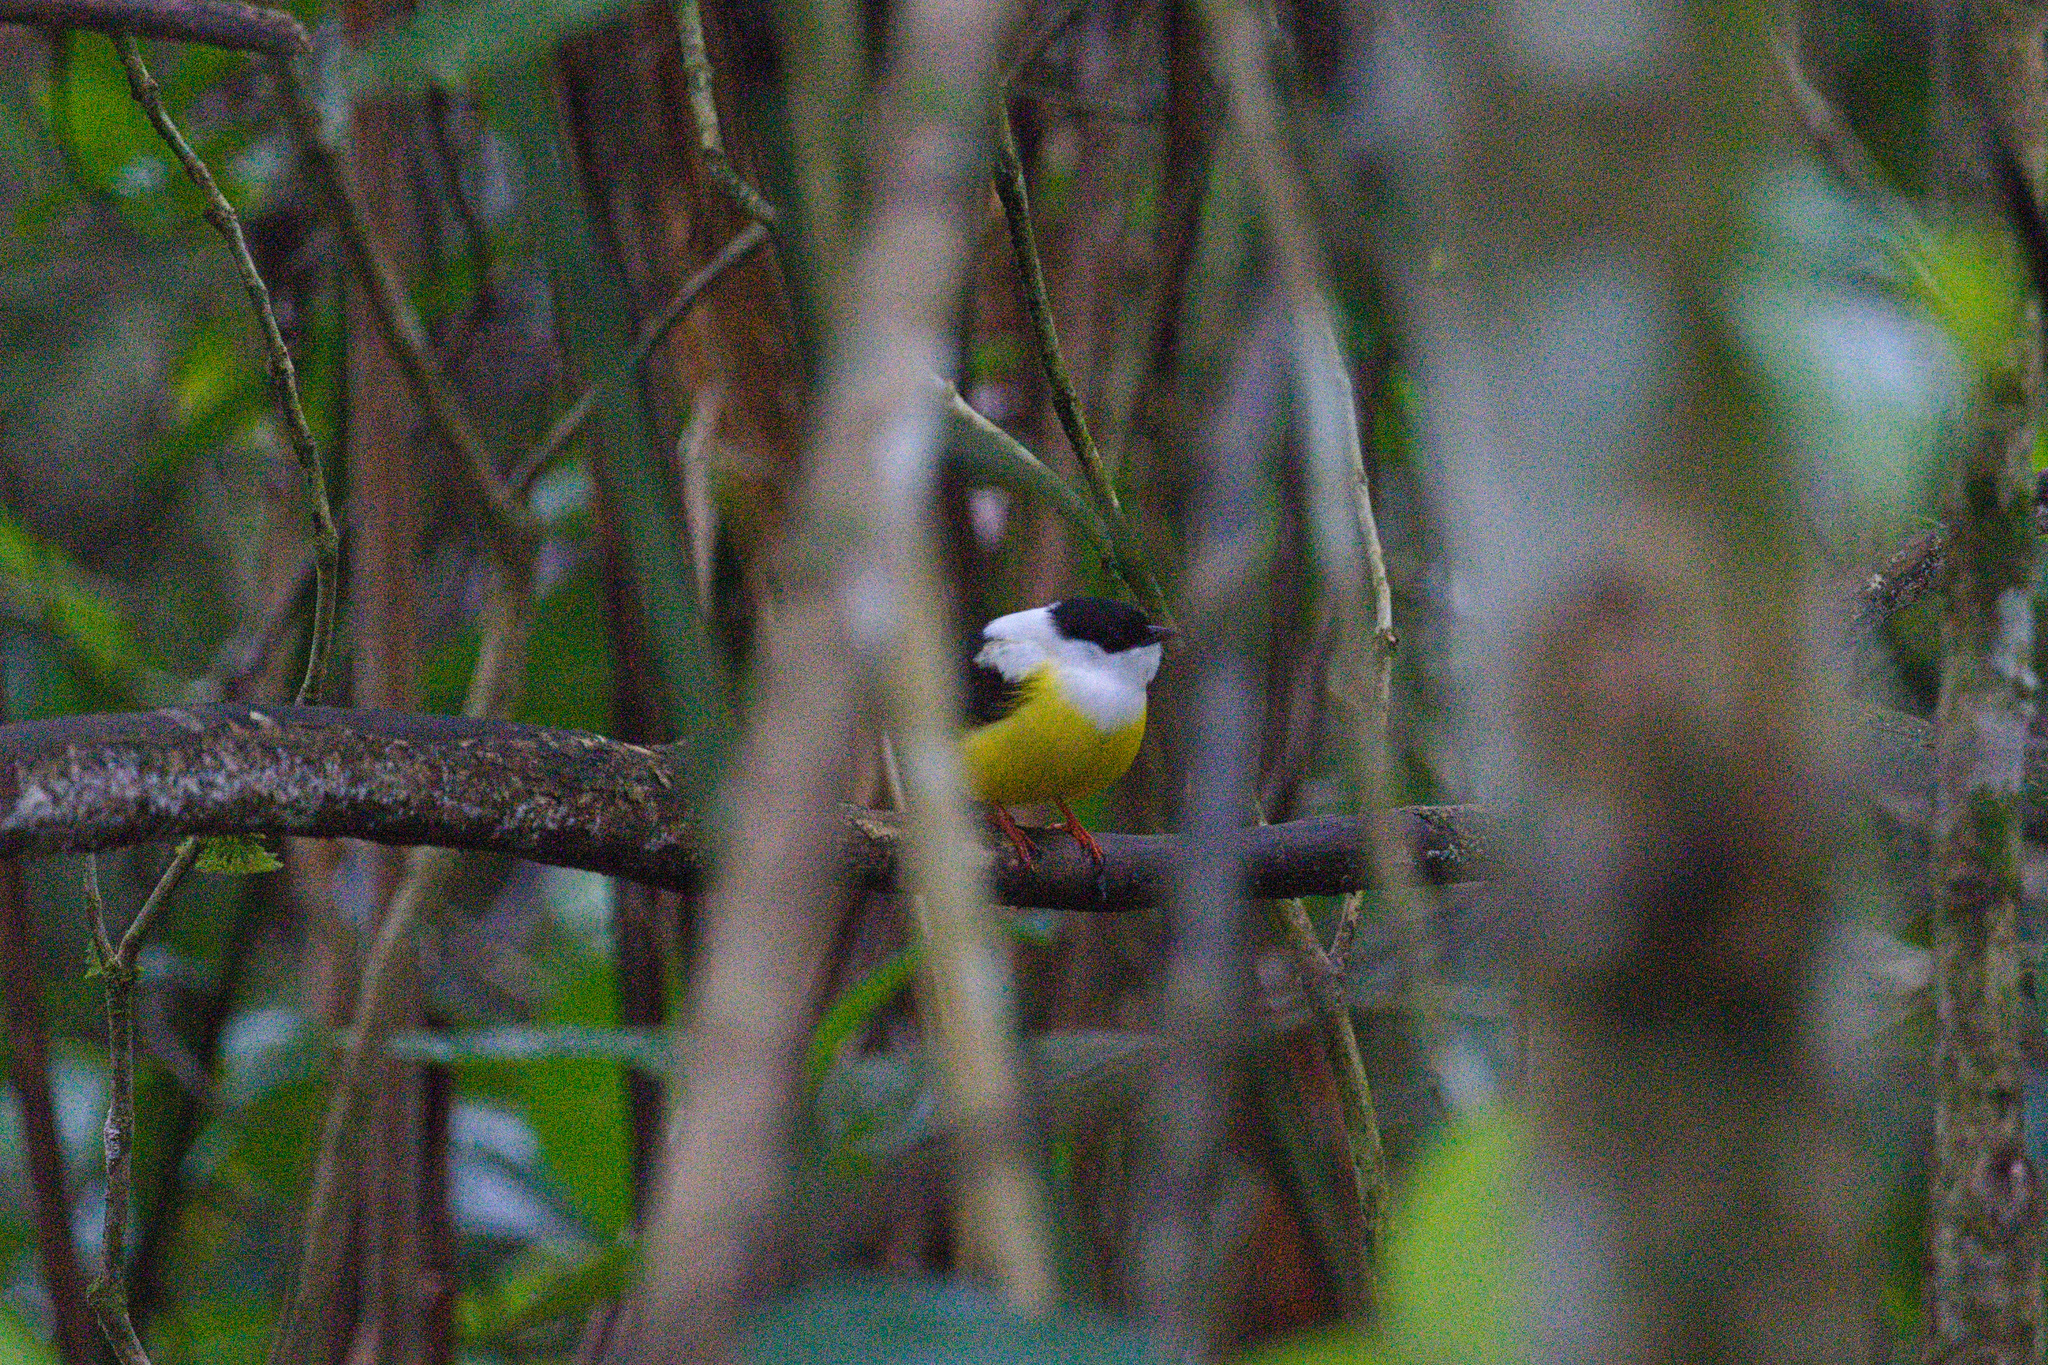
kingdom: Animalia
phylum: Chordata
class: Aves
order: Passeriformes
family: Pipridae
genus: Manacus
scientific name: Manacus candei
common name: White-collared manakin
